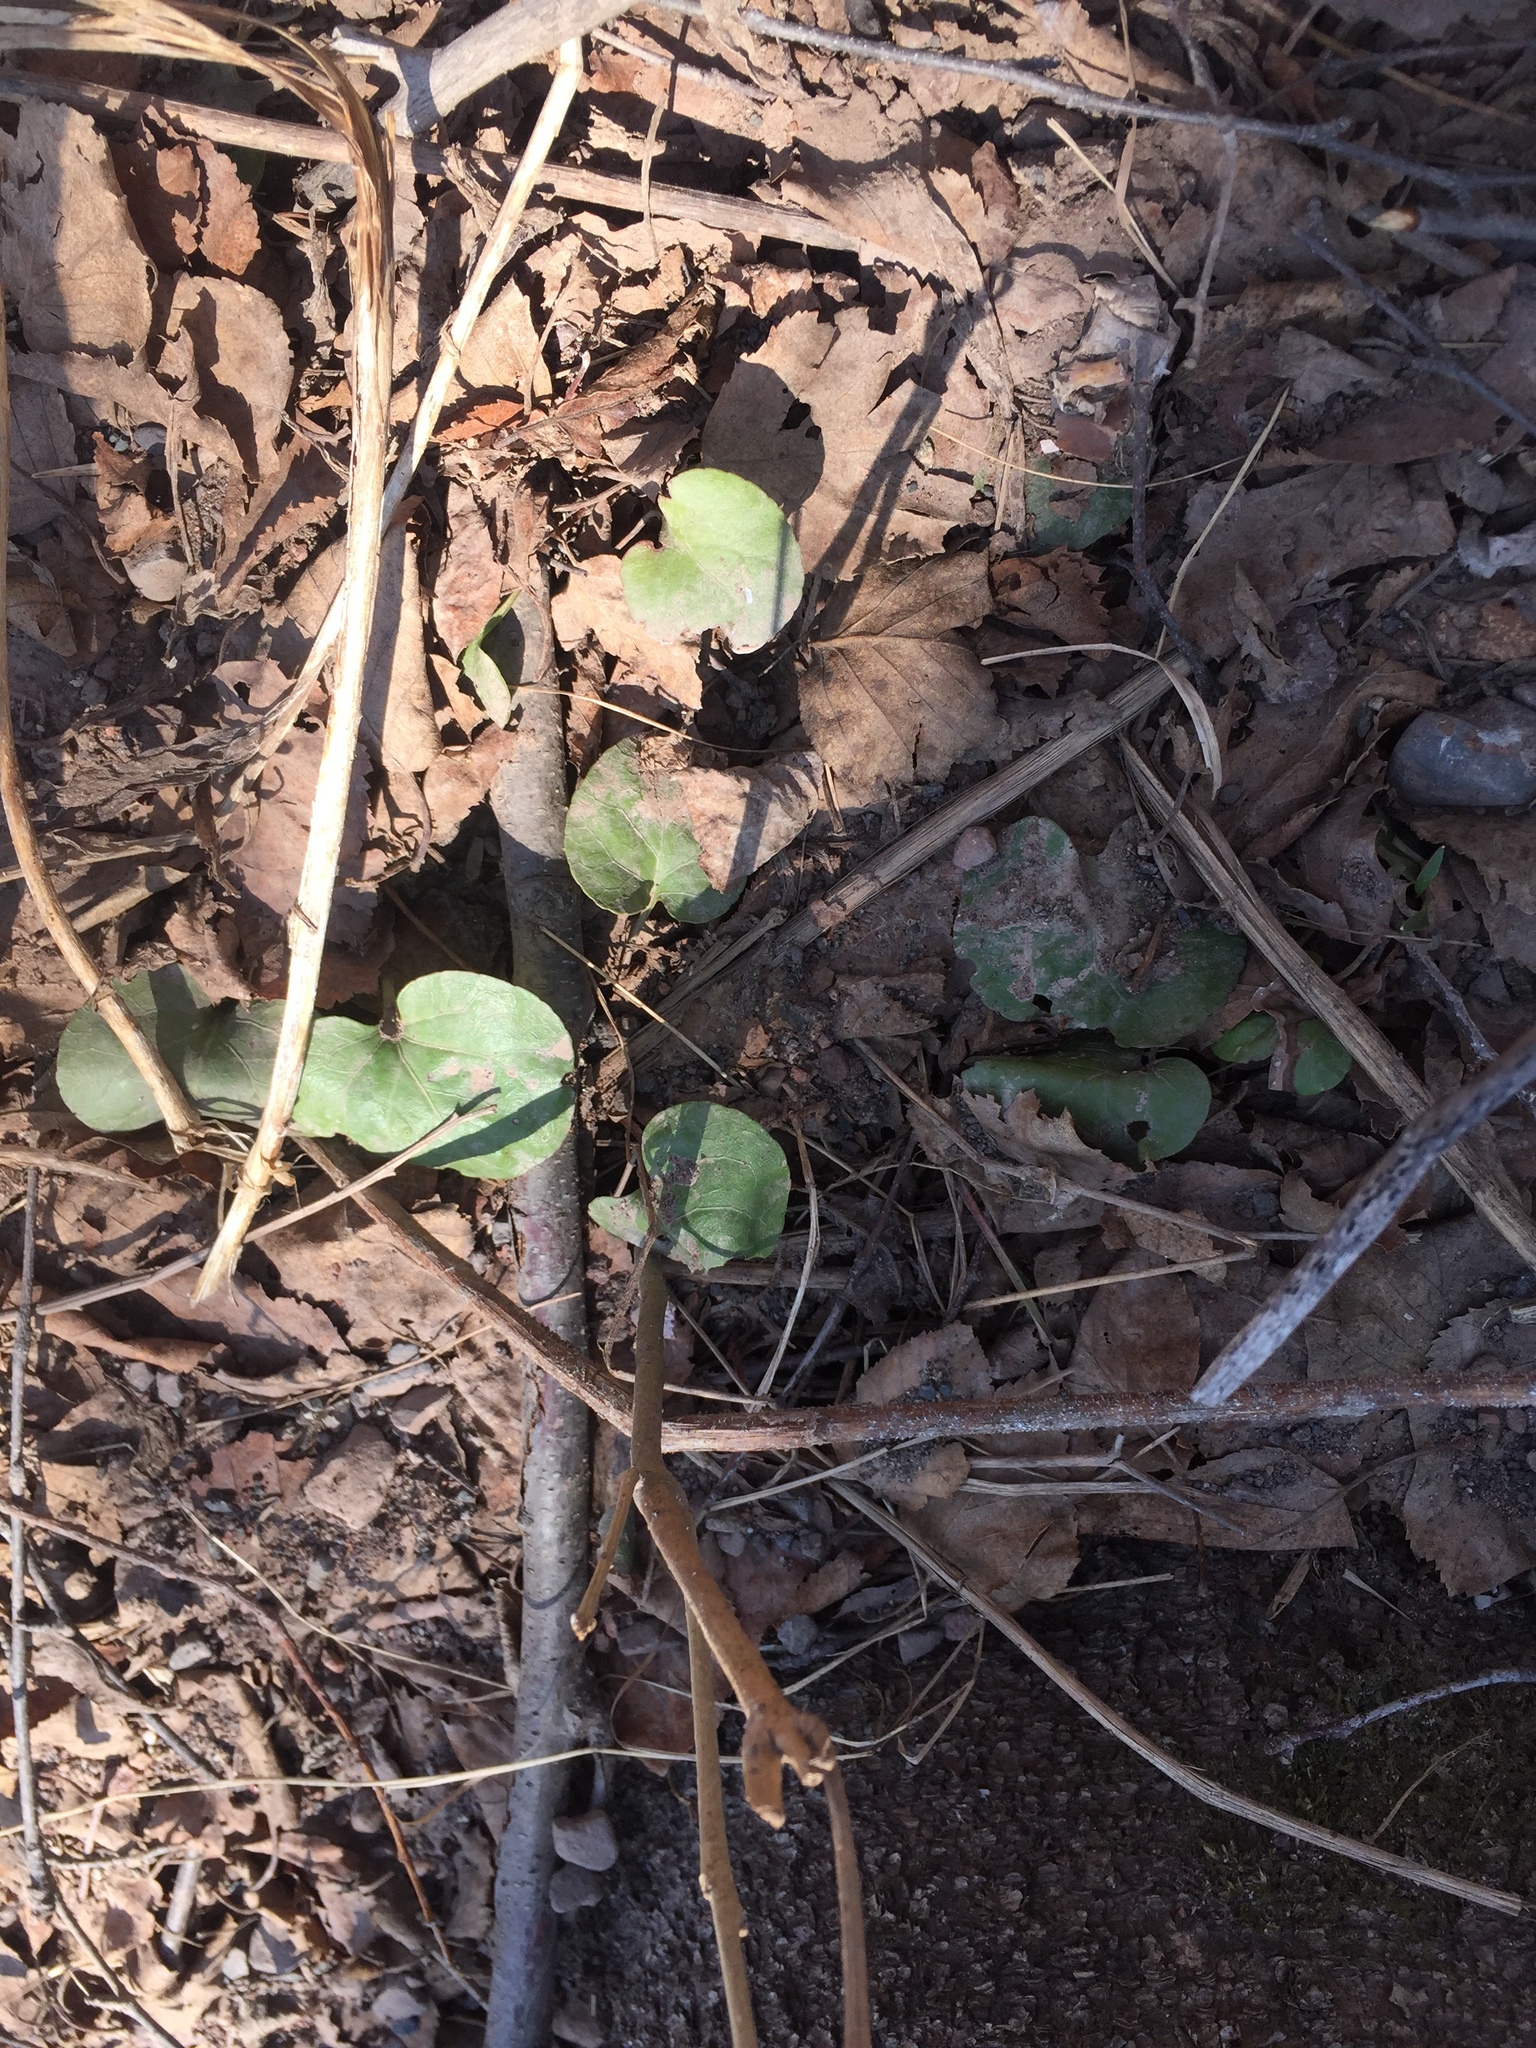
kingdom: Plantae
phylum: Tracheophyta
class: Magnoliopsida
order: Ericales
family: Ericaceae
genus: Pyrola
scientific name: Pyrola asarifolia
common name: Bog wintergreen
